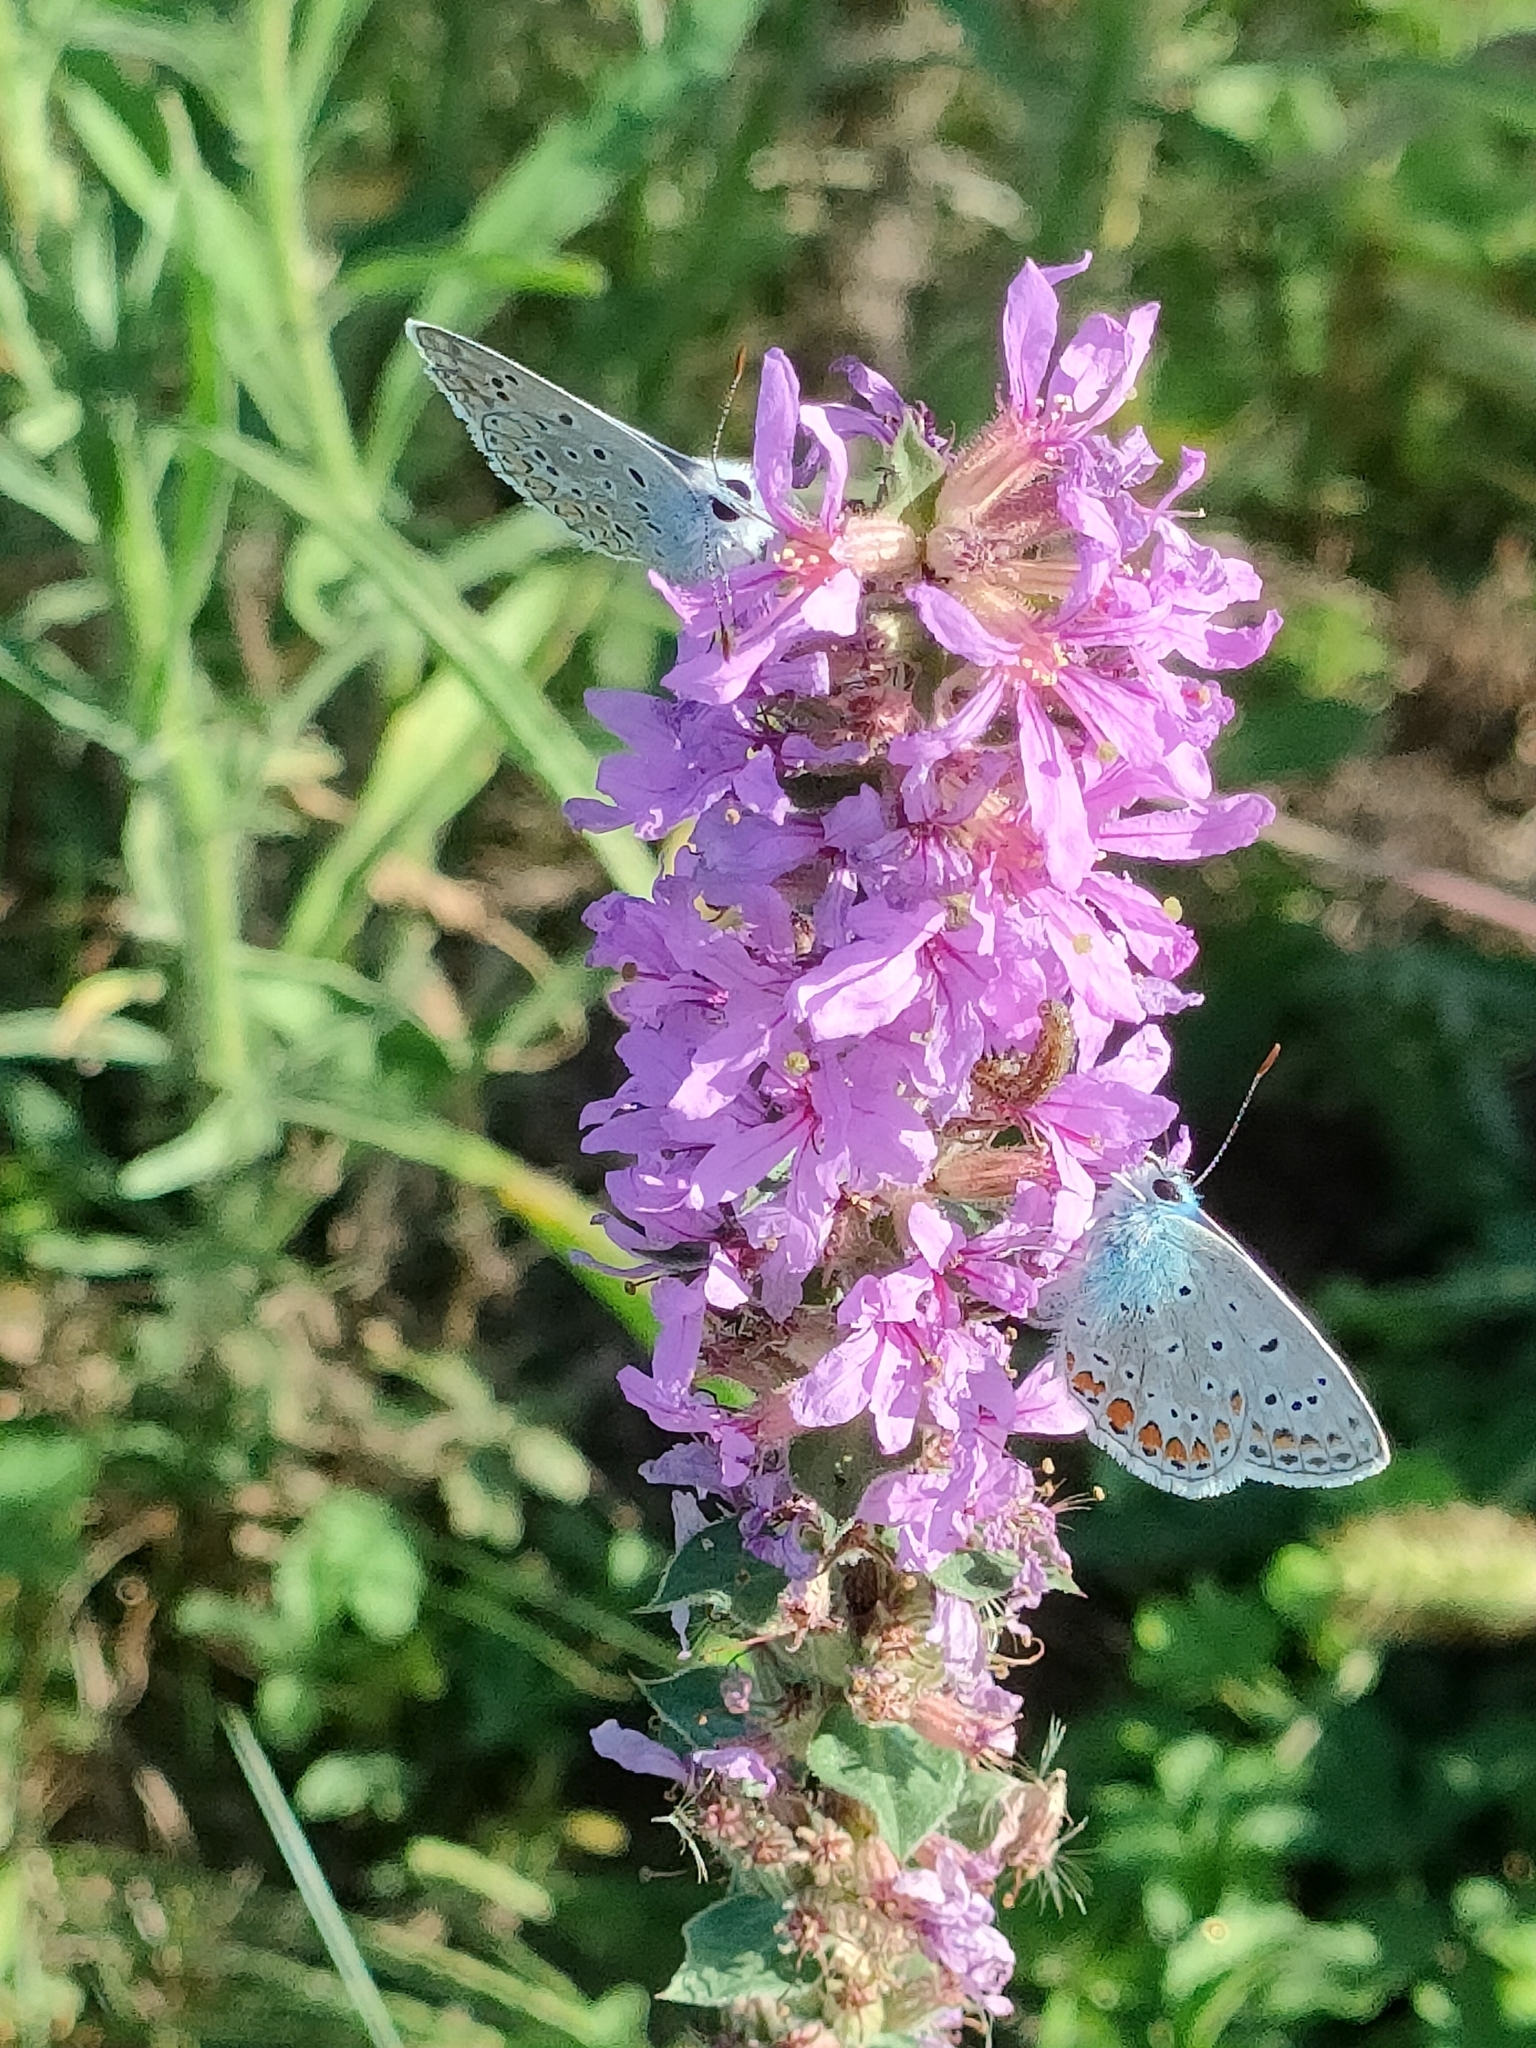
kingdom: Animalia
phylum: Arthropoda
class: Insecta
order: Lepidoptera
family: Lycaenidae
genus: Polyommatus
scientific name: Polyommatus icarus
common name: Common blue
